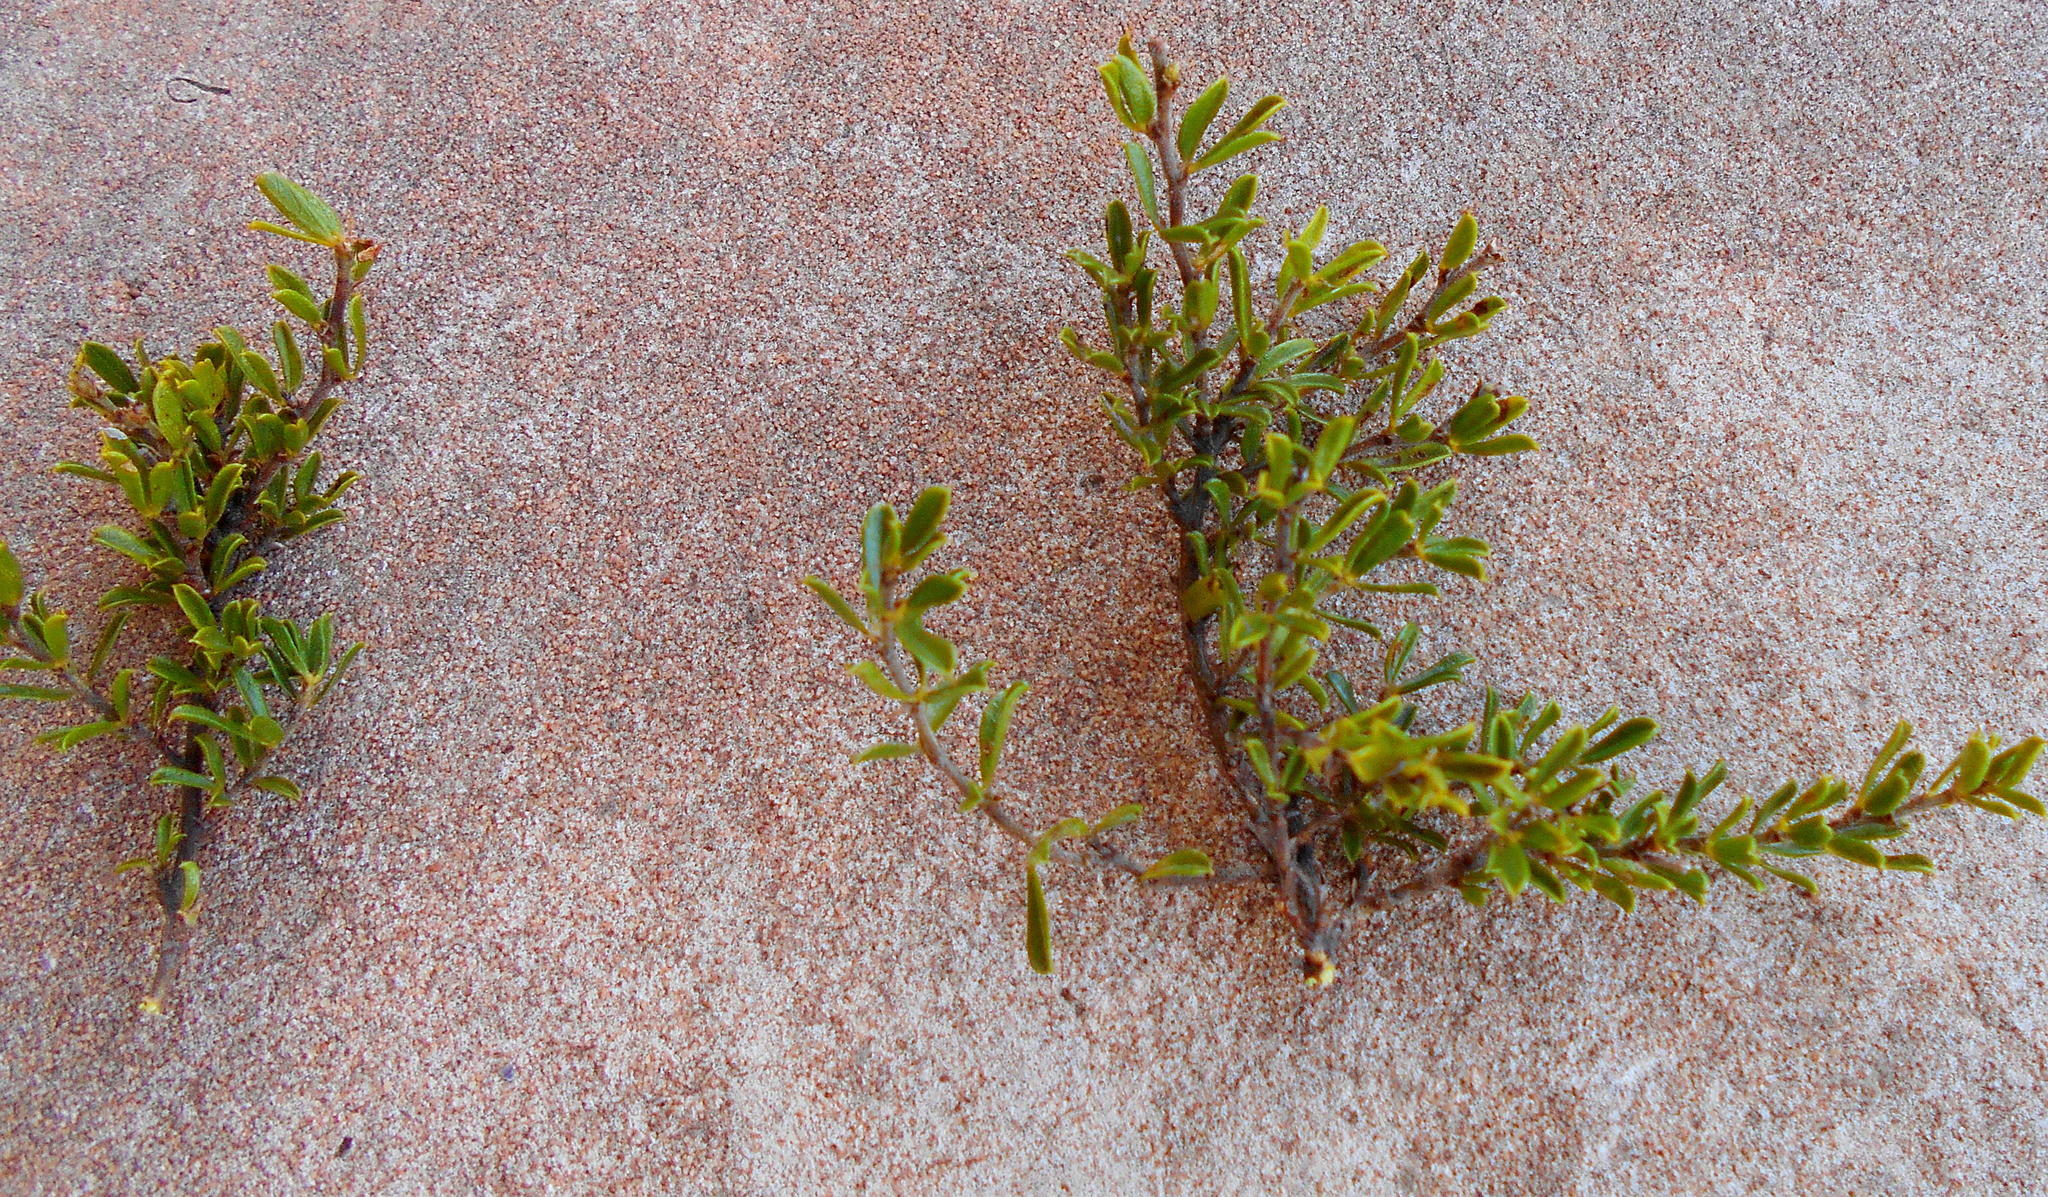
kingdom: Plantae
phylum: Tracheophyta
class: Magnoliopsida
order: Fabales
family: Fabaceae
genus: Psoralea
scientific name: Psoralea heterosepala
